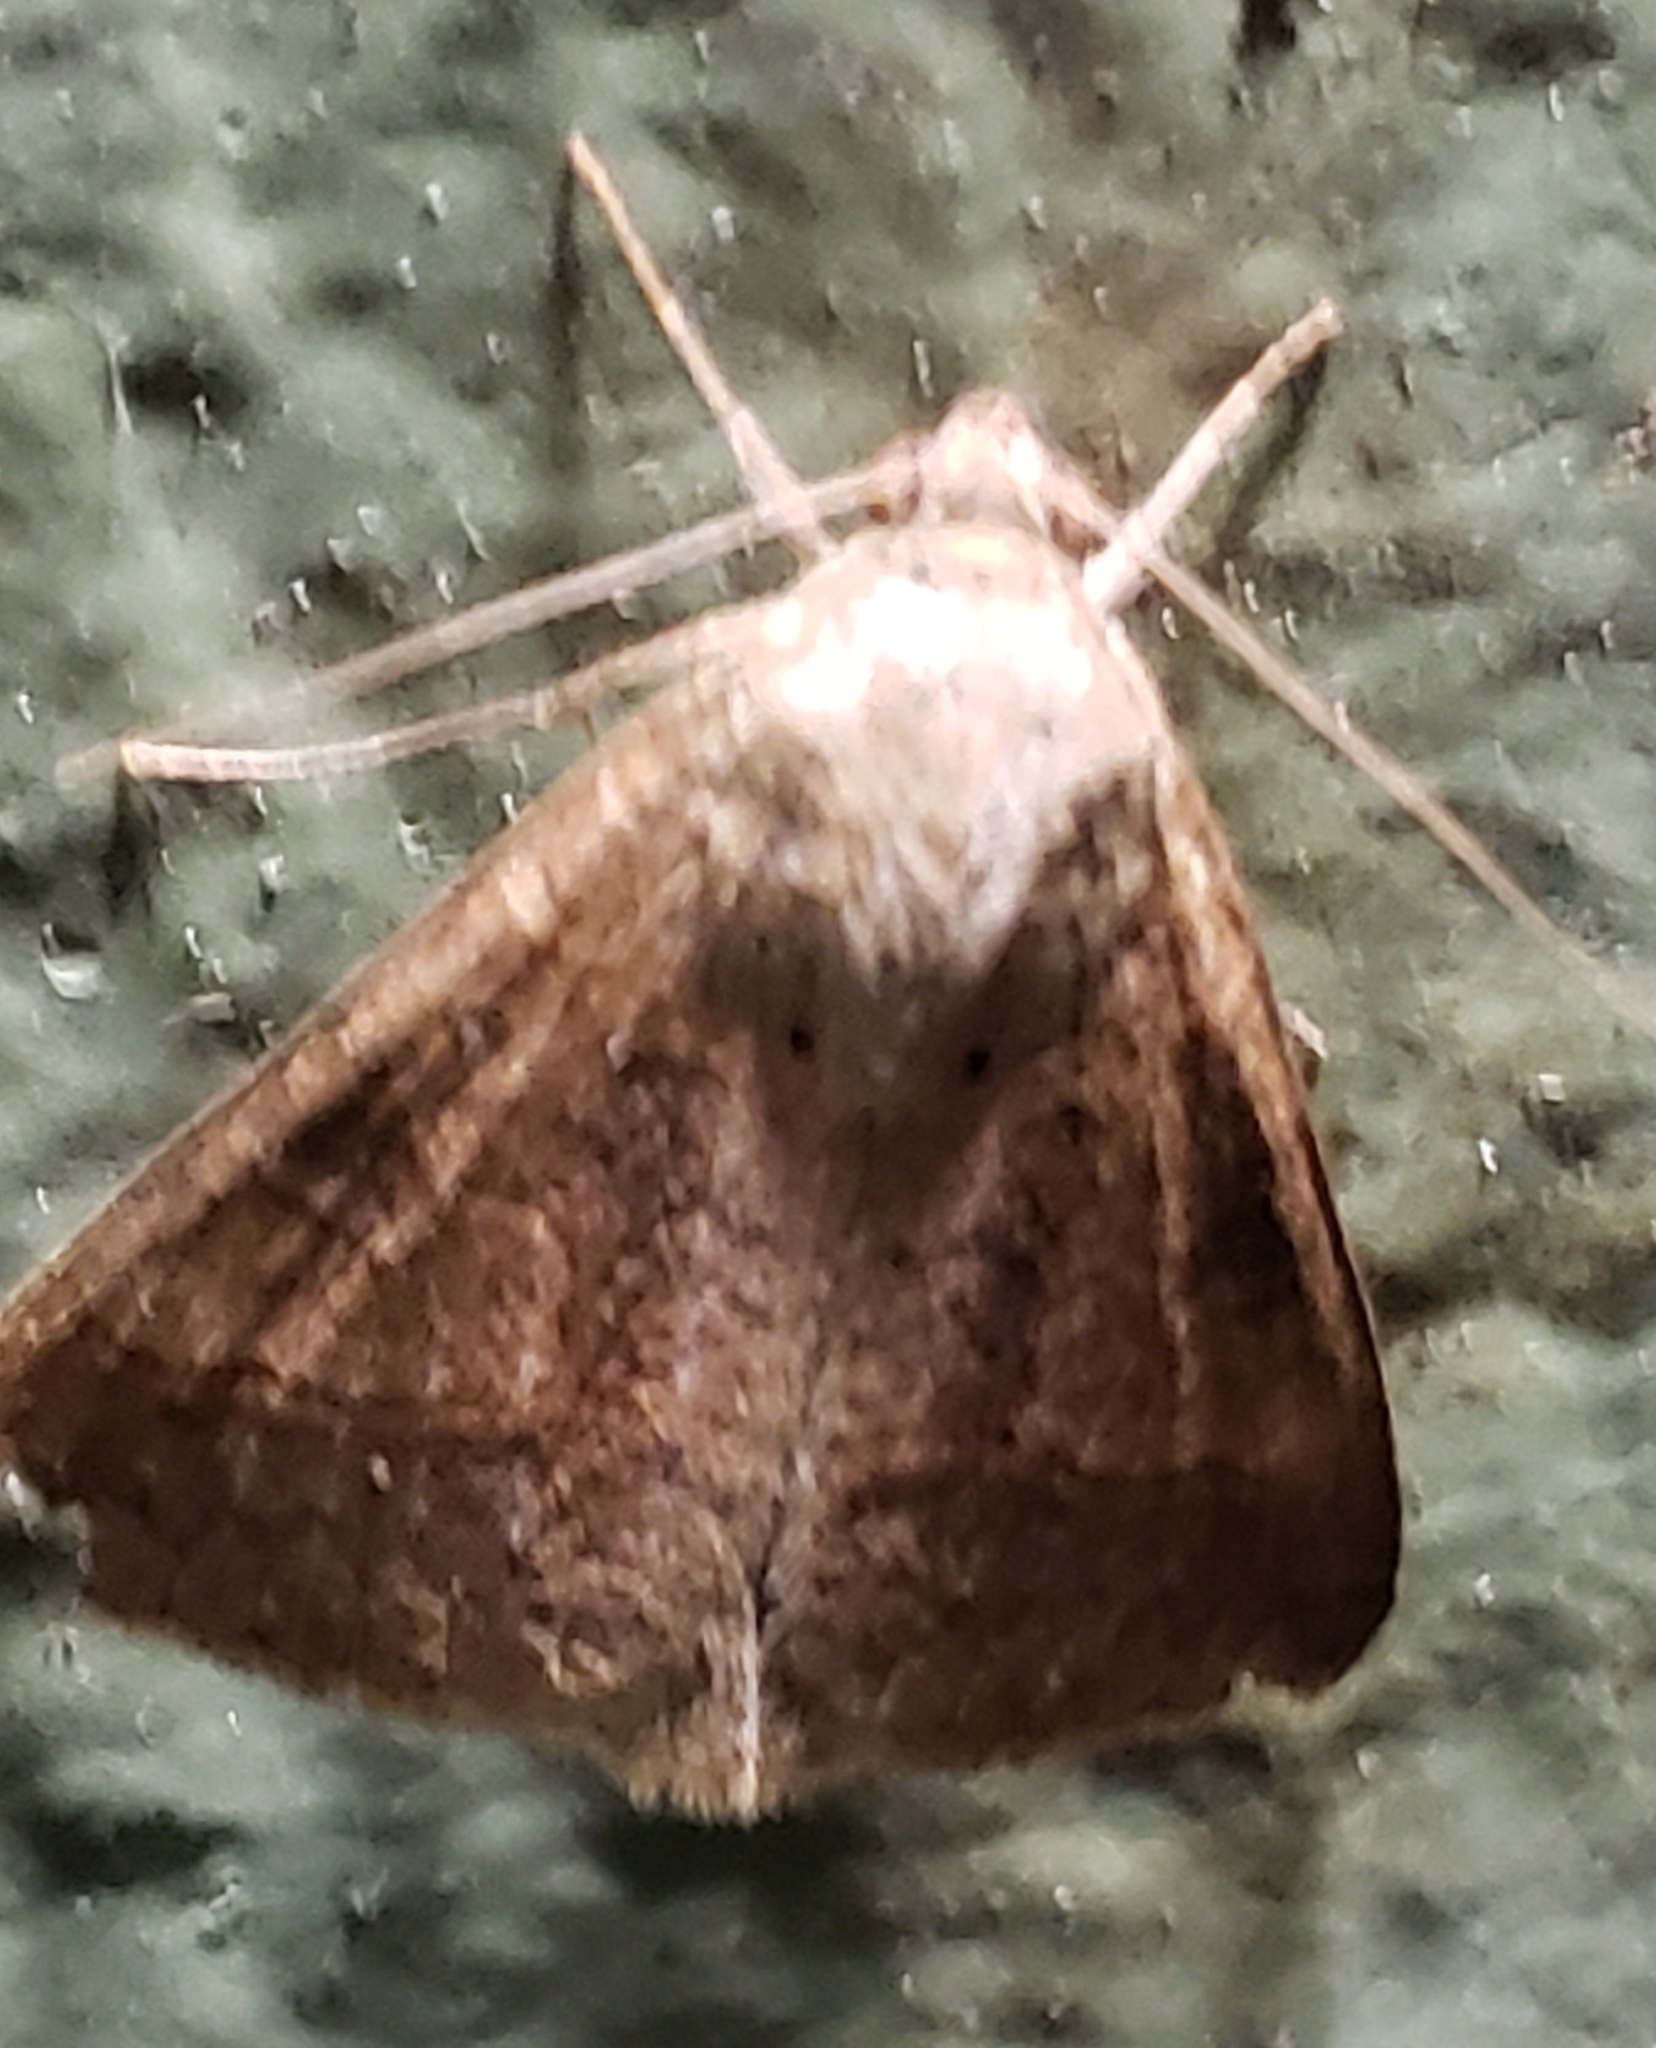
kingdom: Animalia
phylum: Arthropoda
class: Insecta
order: Lepidoptera
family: Erebidae
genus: Mocis
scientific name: Mocis latipes
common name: Striped grass looper
